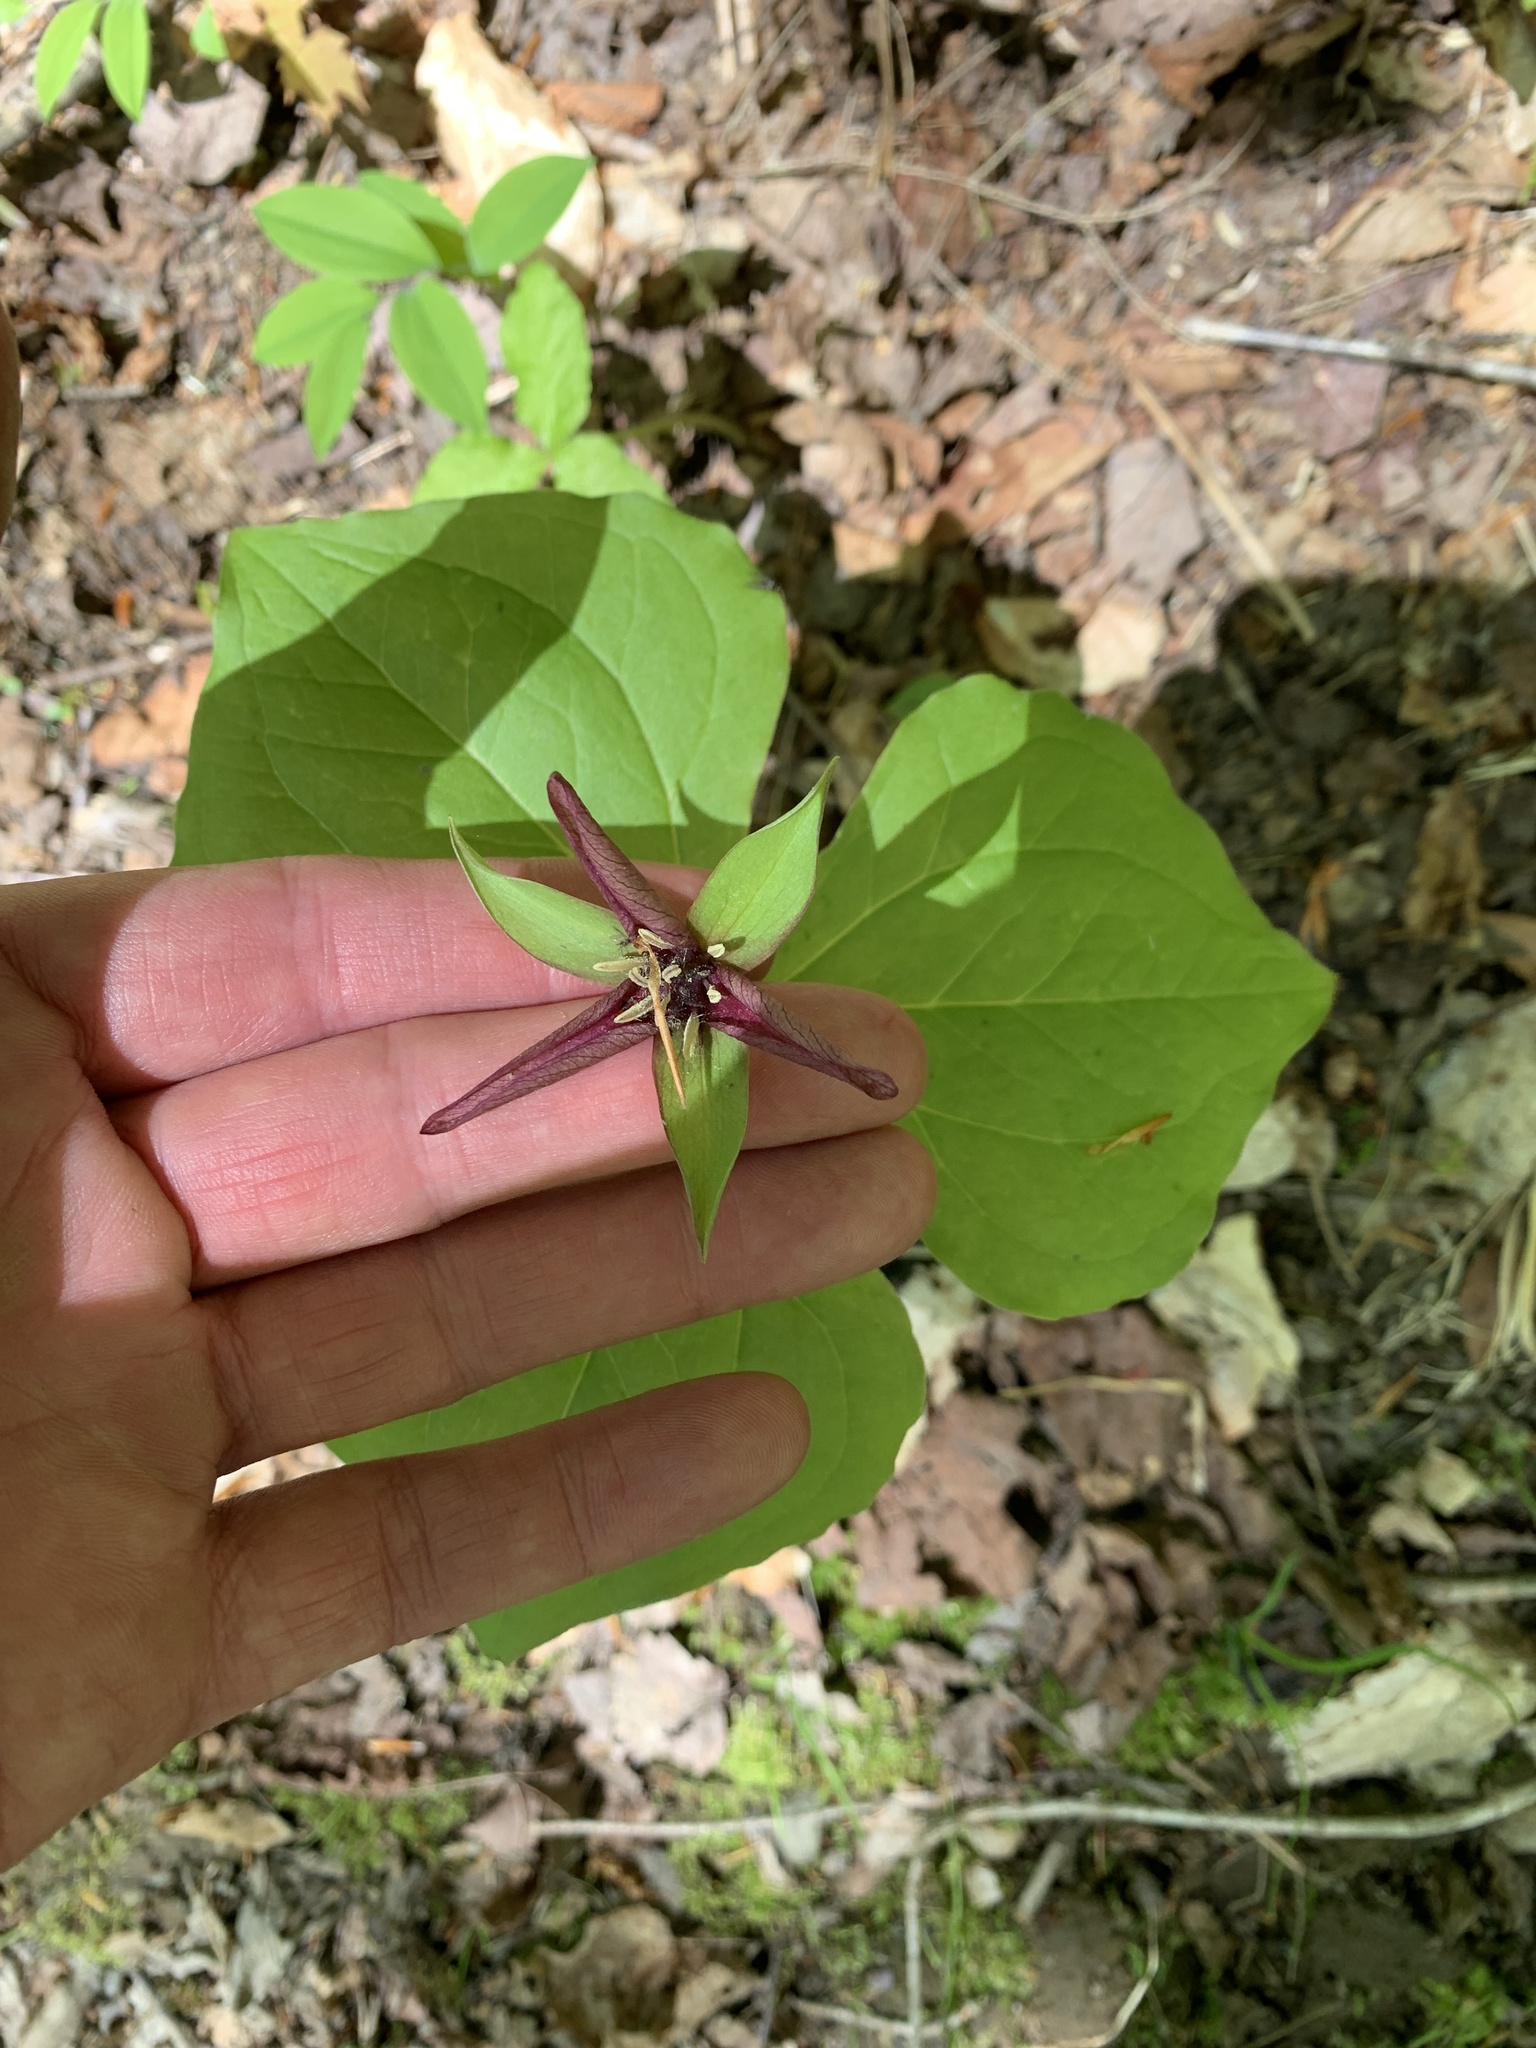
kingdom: Plantae
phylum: Tracheophyta
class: Liliopsida
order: Liliales
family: Melanthiaceae
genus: Trillium
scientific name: Trillium erectum
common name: Purple trillium
